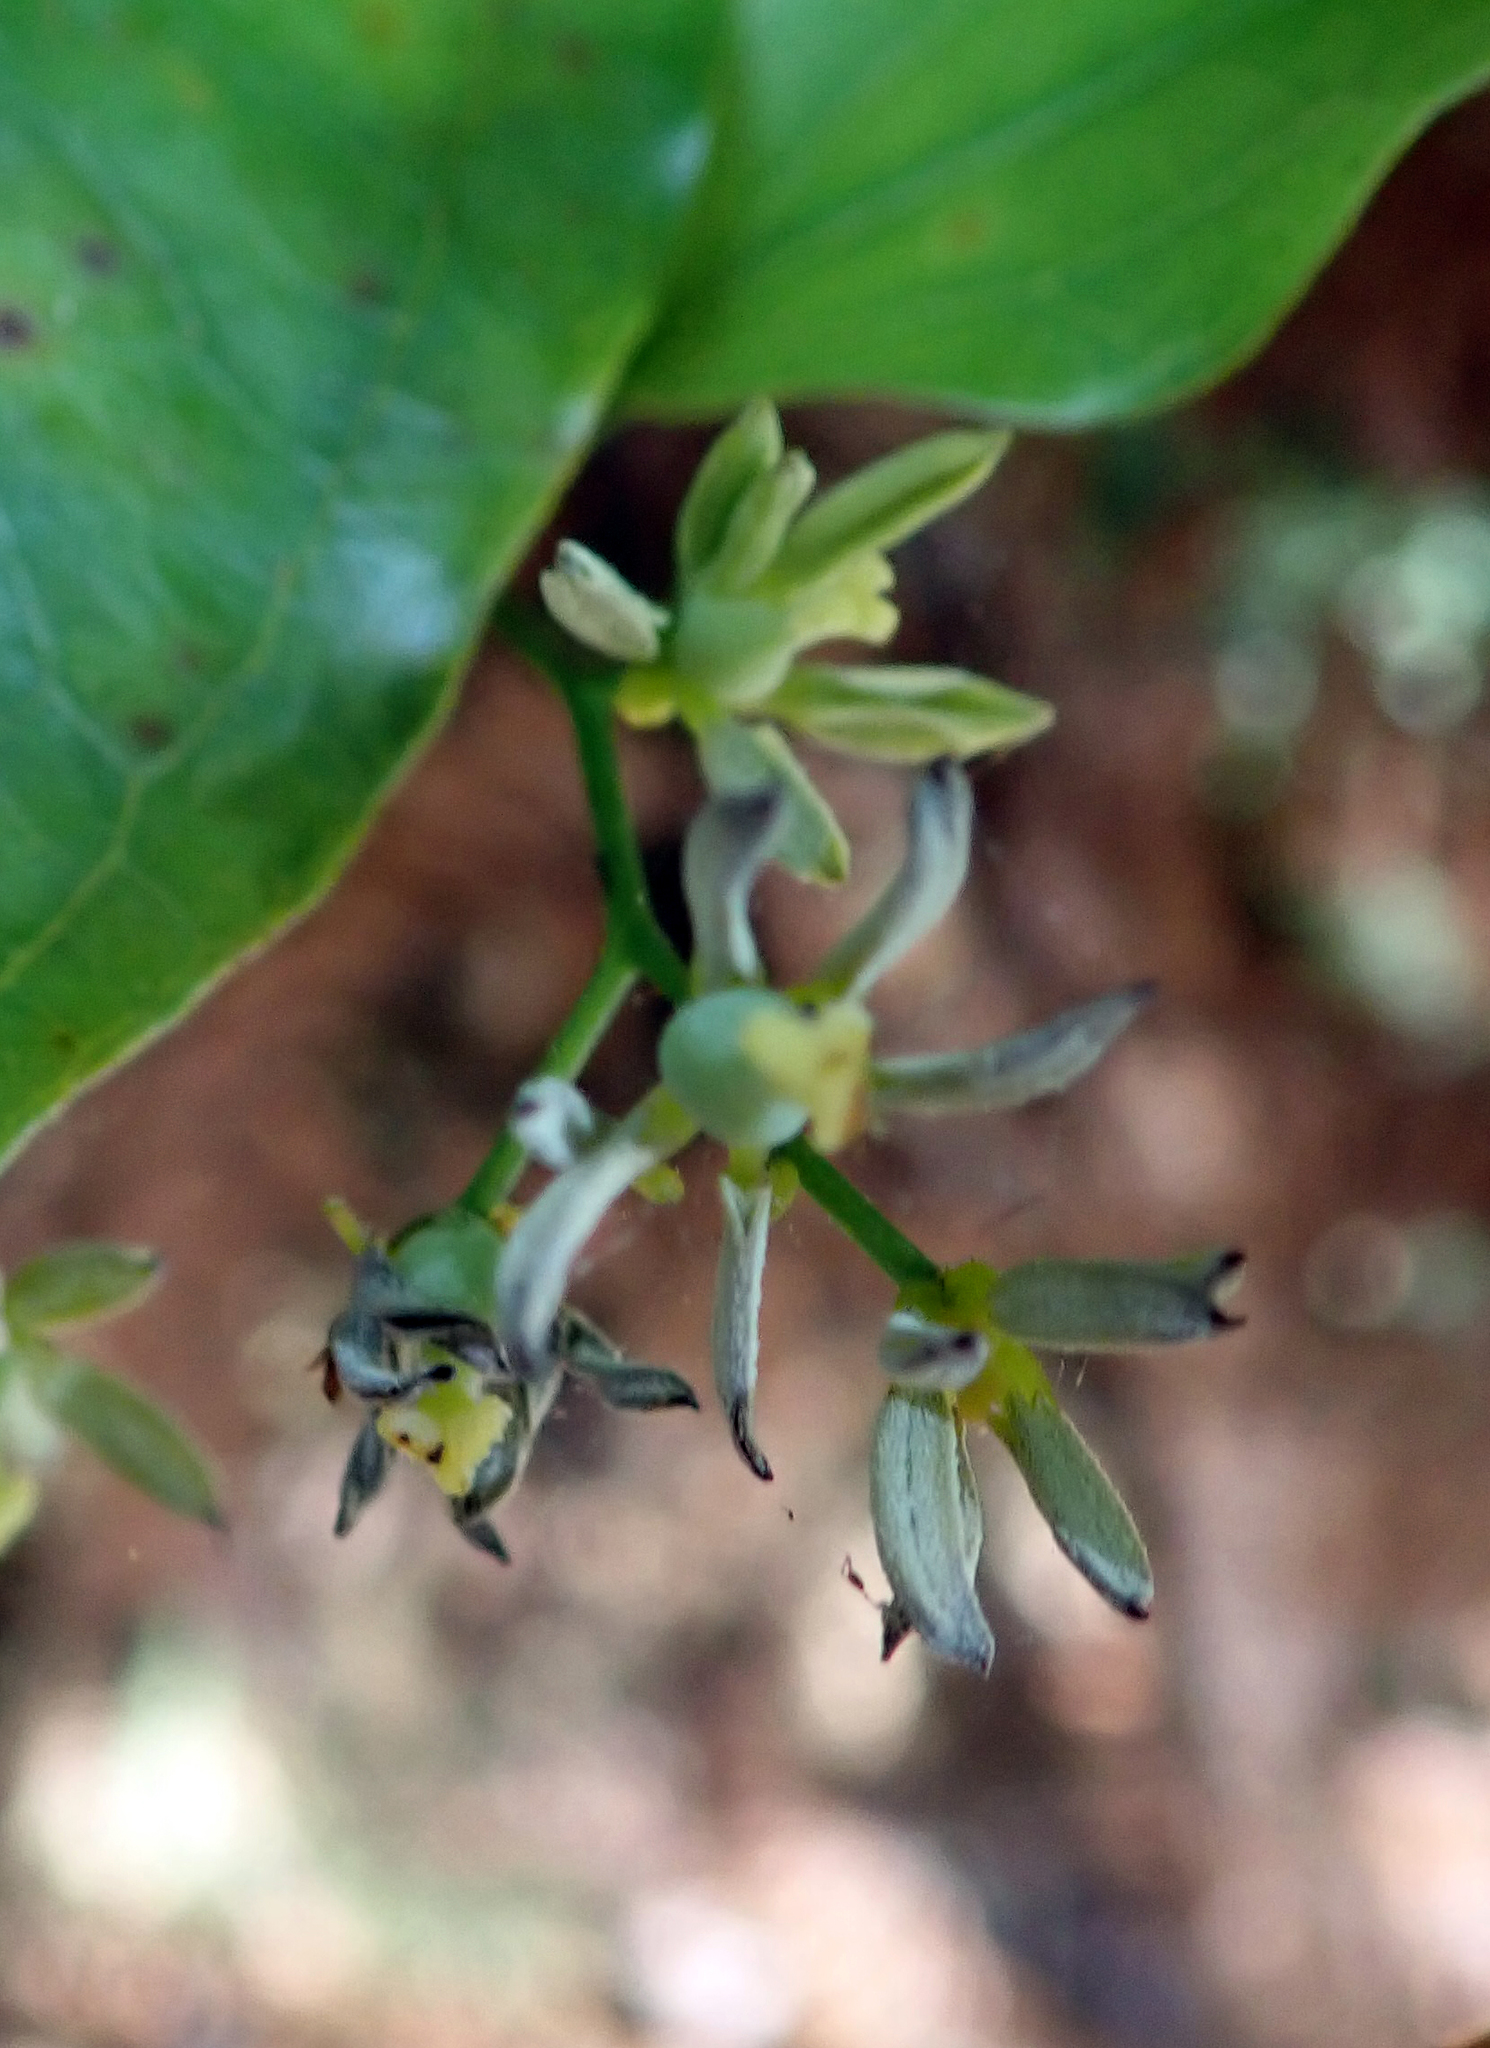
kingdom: Plantae
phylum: Tracheophyta
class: Liliopsida
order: Liliales
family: Ripogonaceae
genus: Ripogonum
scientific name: Ripogonum scandens
